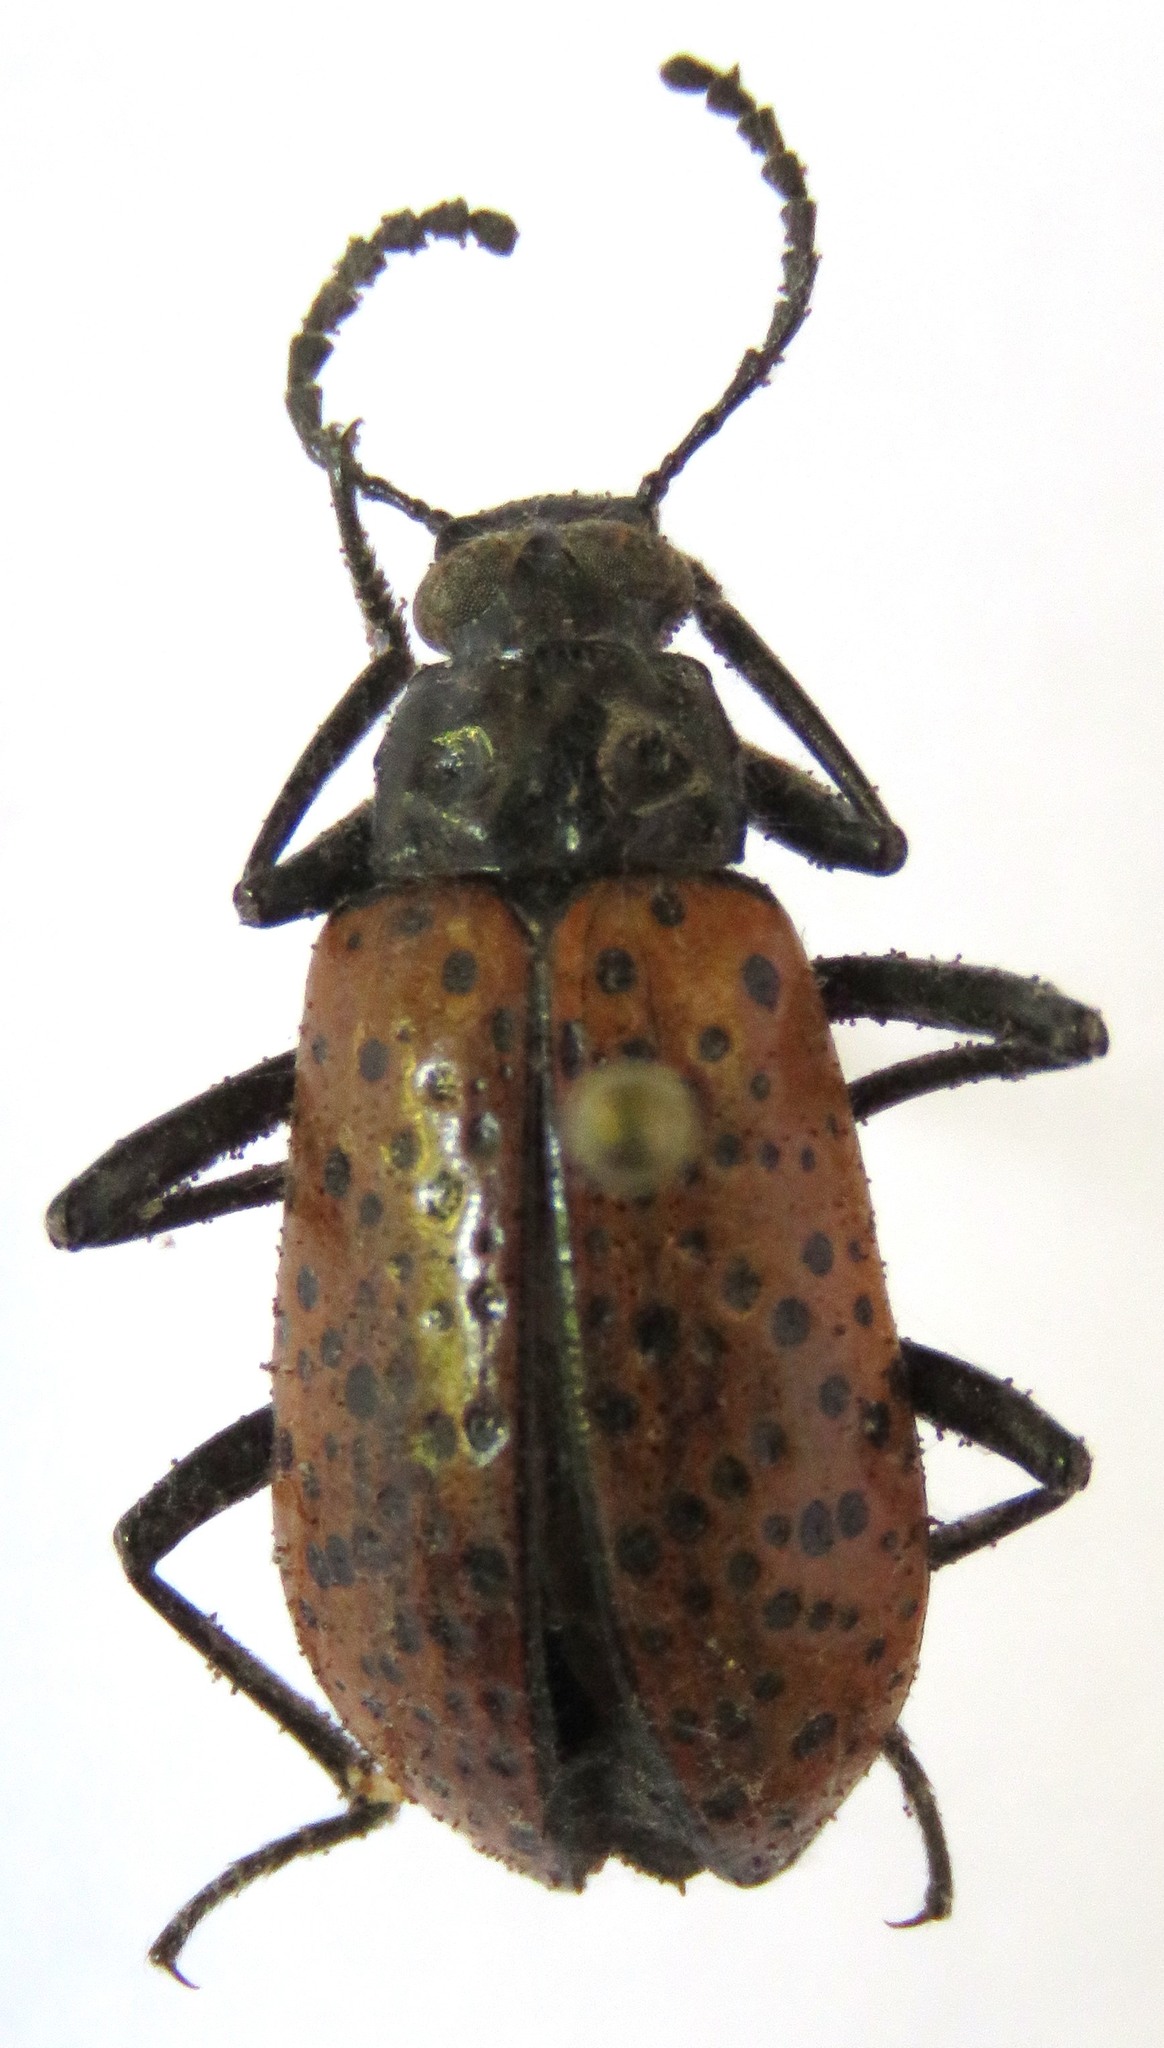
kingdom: Animalia
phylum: Arthropoda
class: Insecta
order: Coleoptera
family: Tenebrionidae
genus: Cuphotes
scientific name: Cuphotes elongatus
